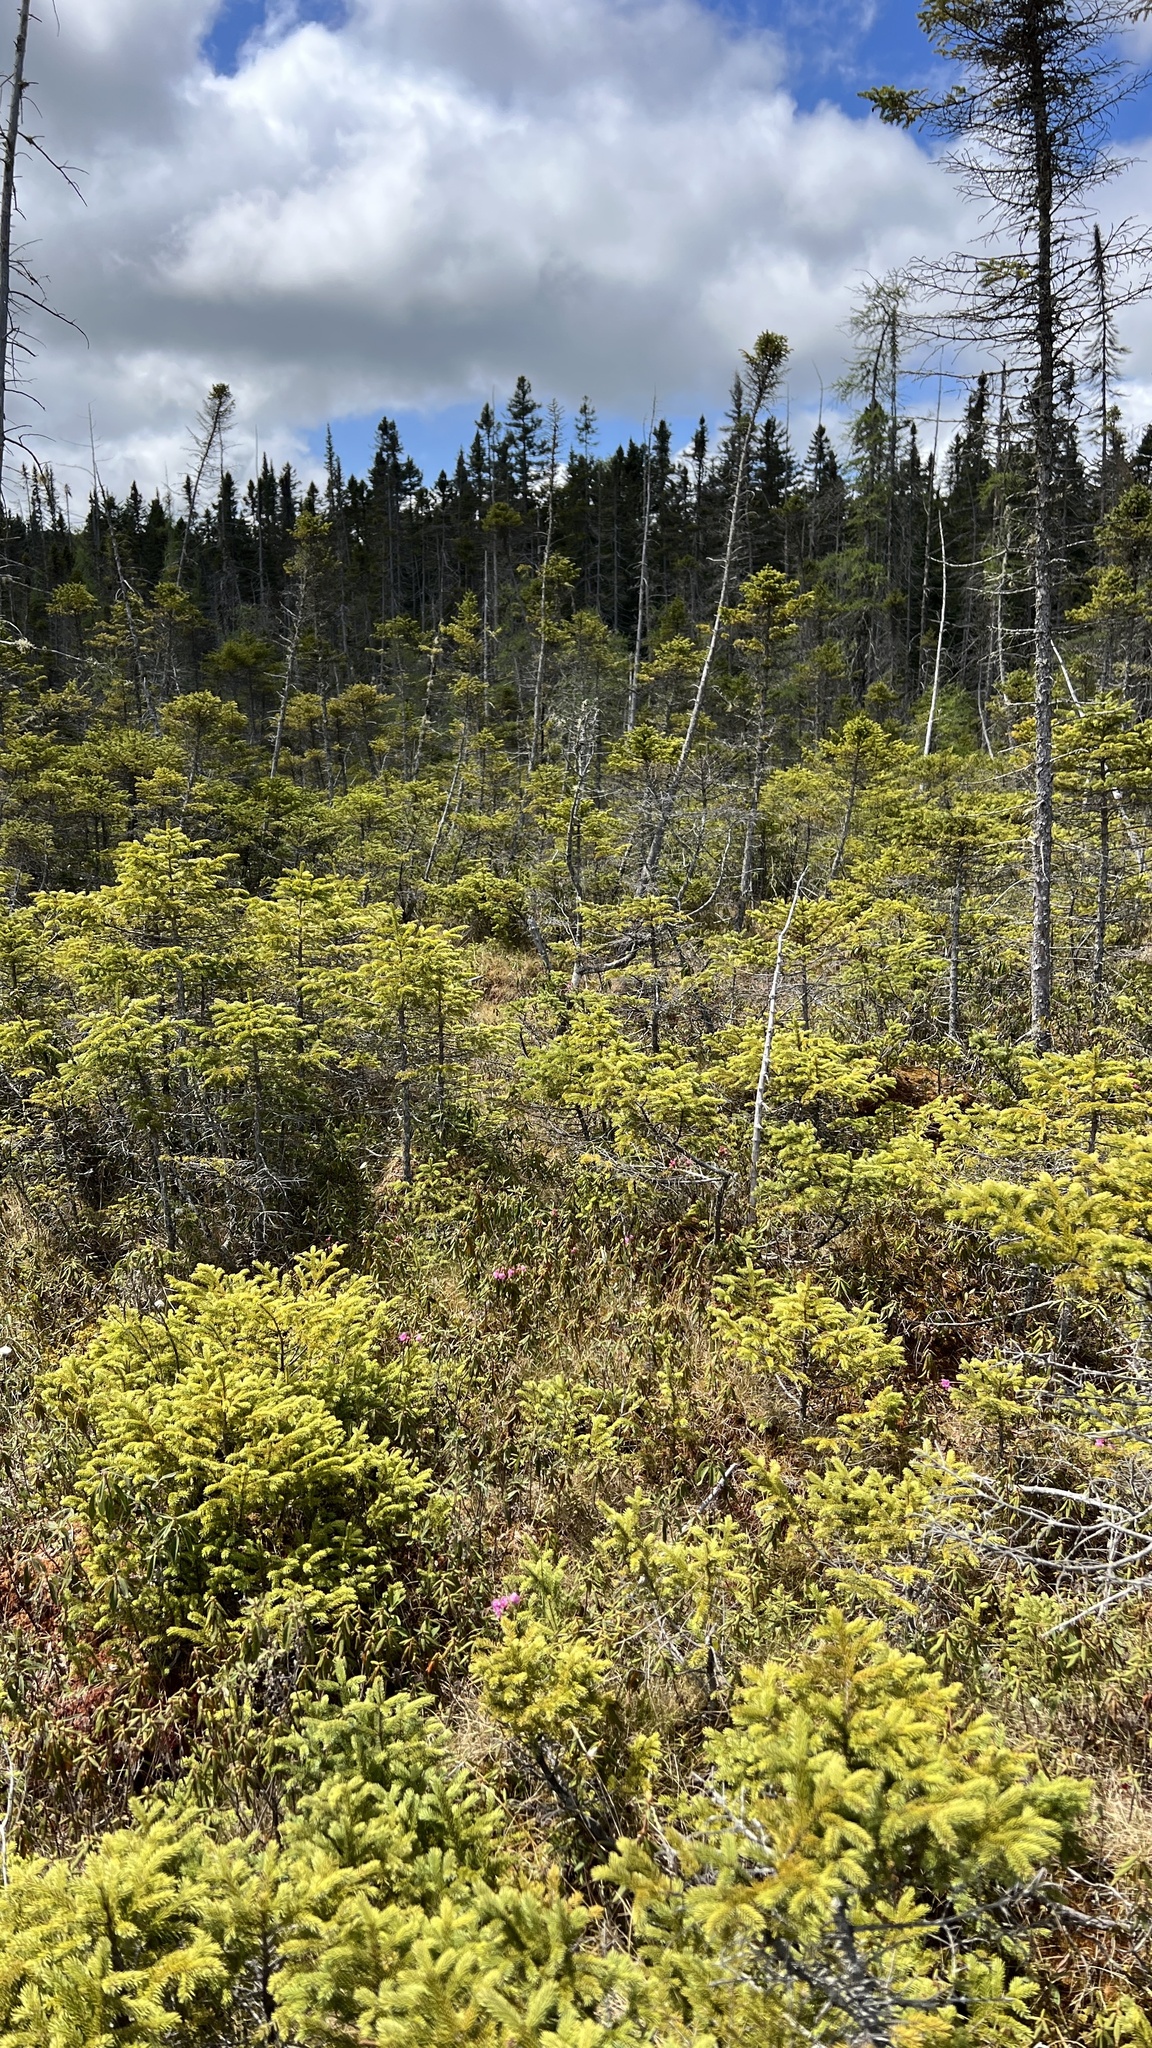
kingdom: Plantae
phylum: Tracheophyta
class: Pinopsida
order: Pinales
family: Pinaceae
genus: Picea
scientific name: Picea mariana
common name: Black spruce
